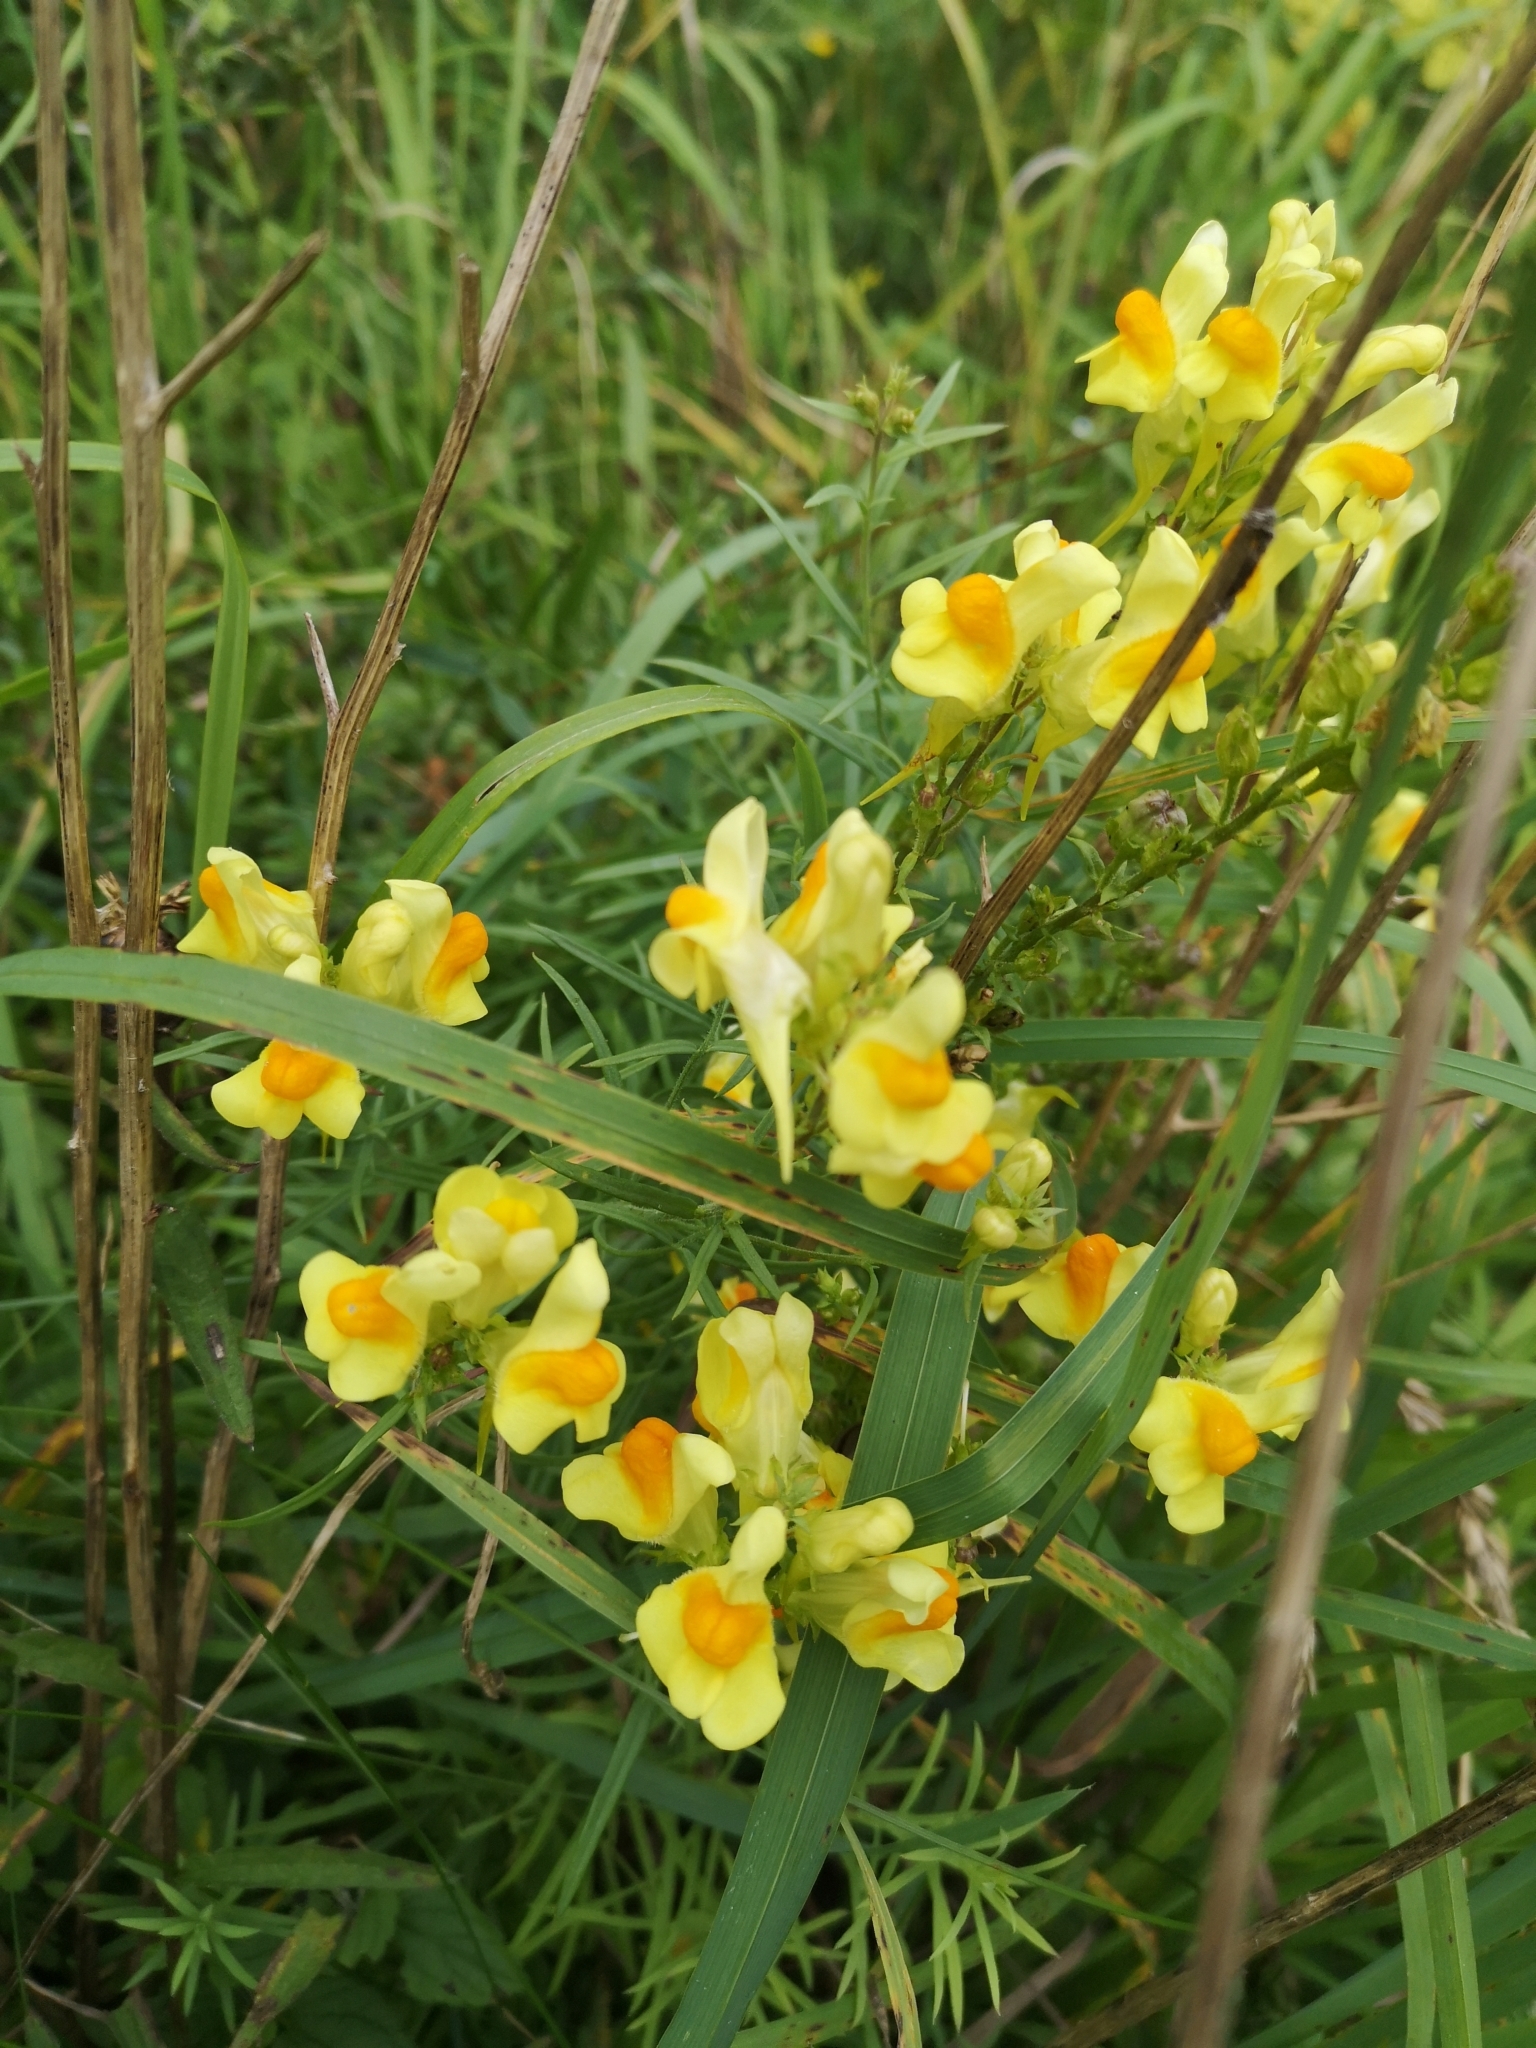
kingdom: Plantae
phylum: Tracheophyta
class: Magnoliopsida
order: Lamiales
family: Plantaginaceae
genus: Linaria
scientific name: Linaria vulgaris
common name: Butter and eggs
